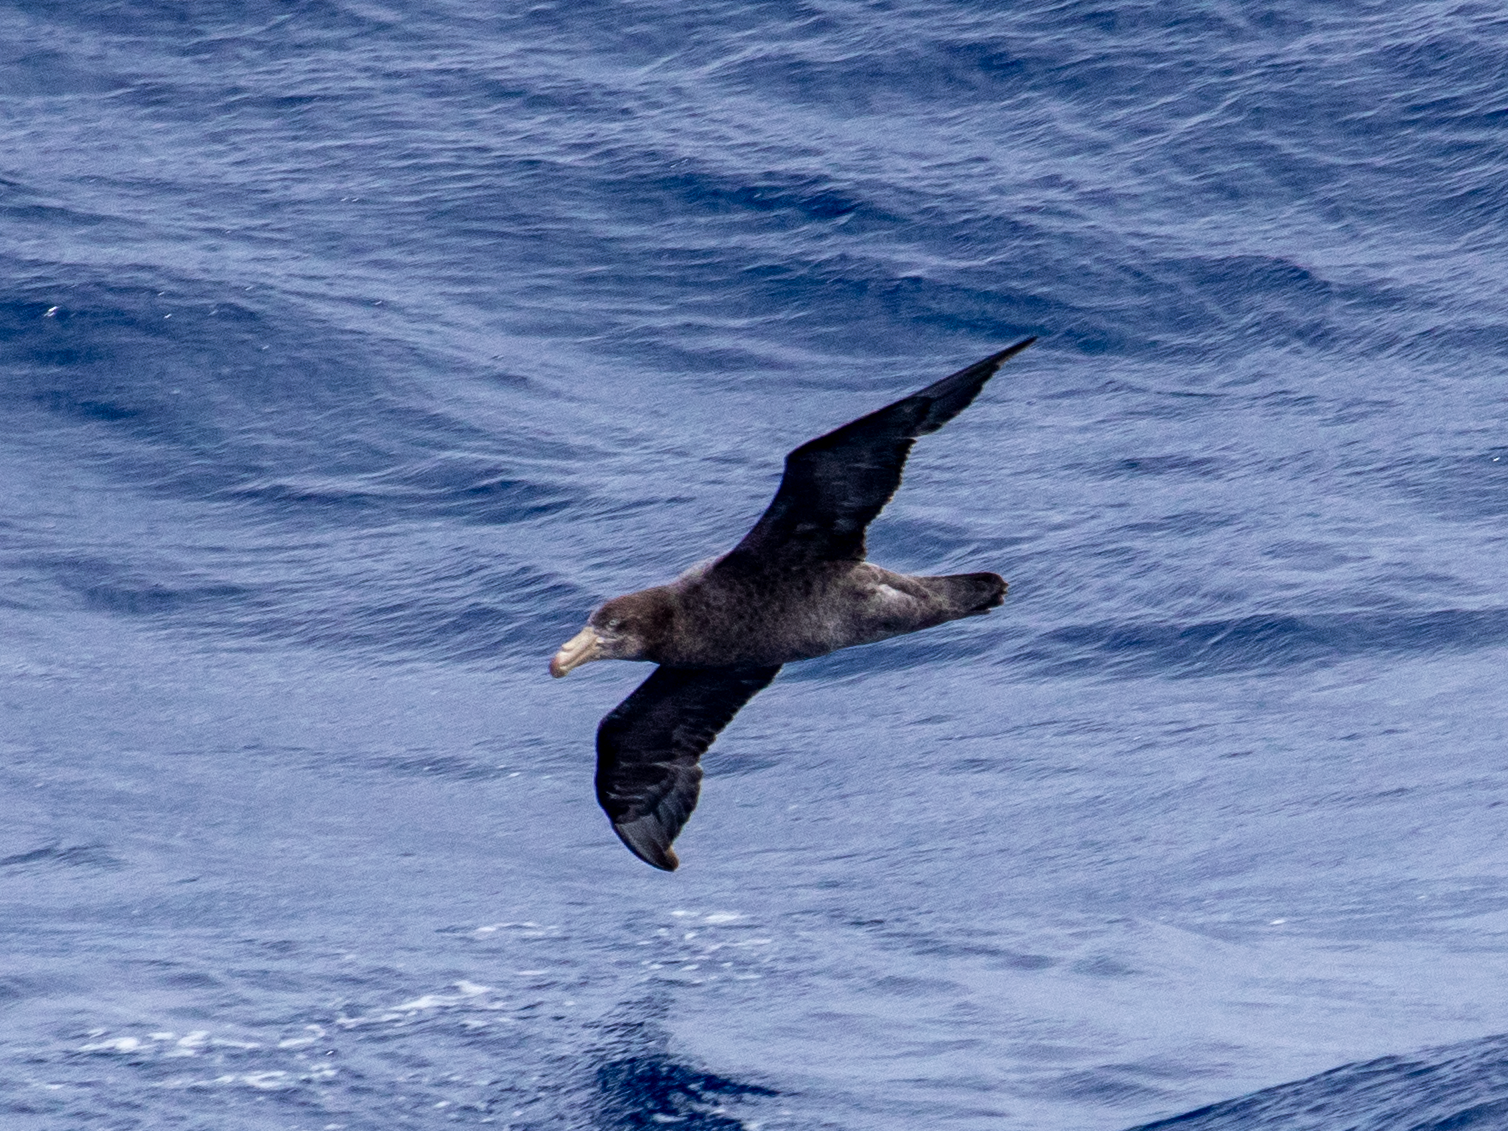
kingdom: Animalia
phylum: Chordata
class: Aves
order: Procellariiformes
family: Procellariidae
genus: Macronectes
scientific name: Macronectes halli
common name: Northern giant petrel
